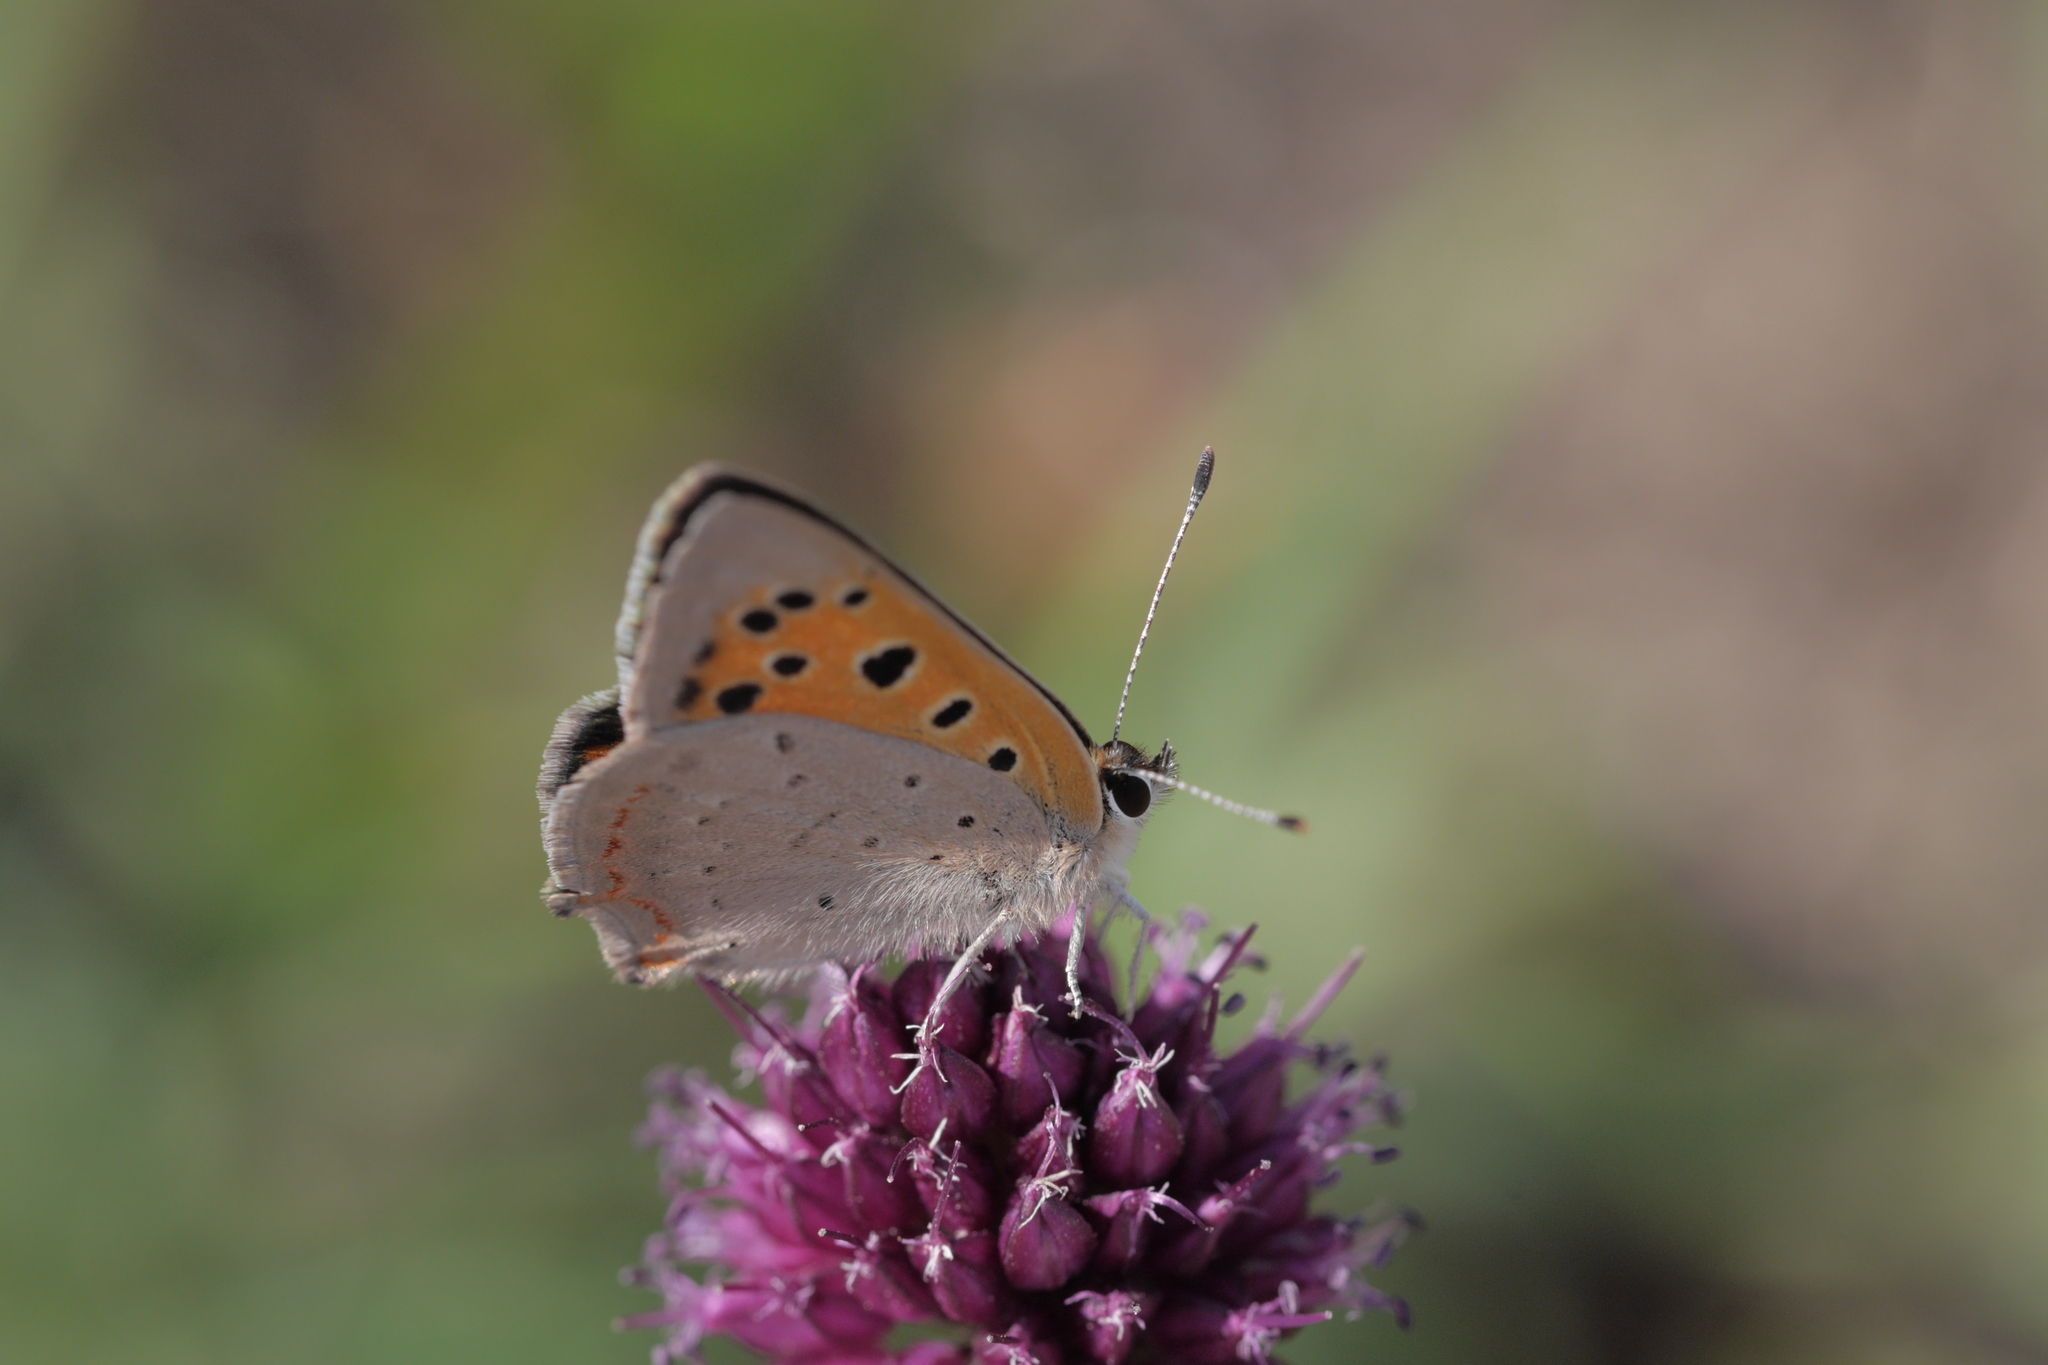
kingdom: Animalia
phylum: Arthropoda
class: Insecta
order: Lepidoptera
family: Lycaenidae
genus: Lycaena
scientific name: Lycaena phlaeas
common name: Small copper
